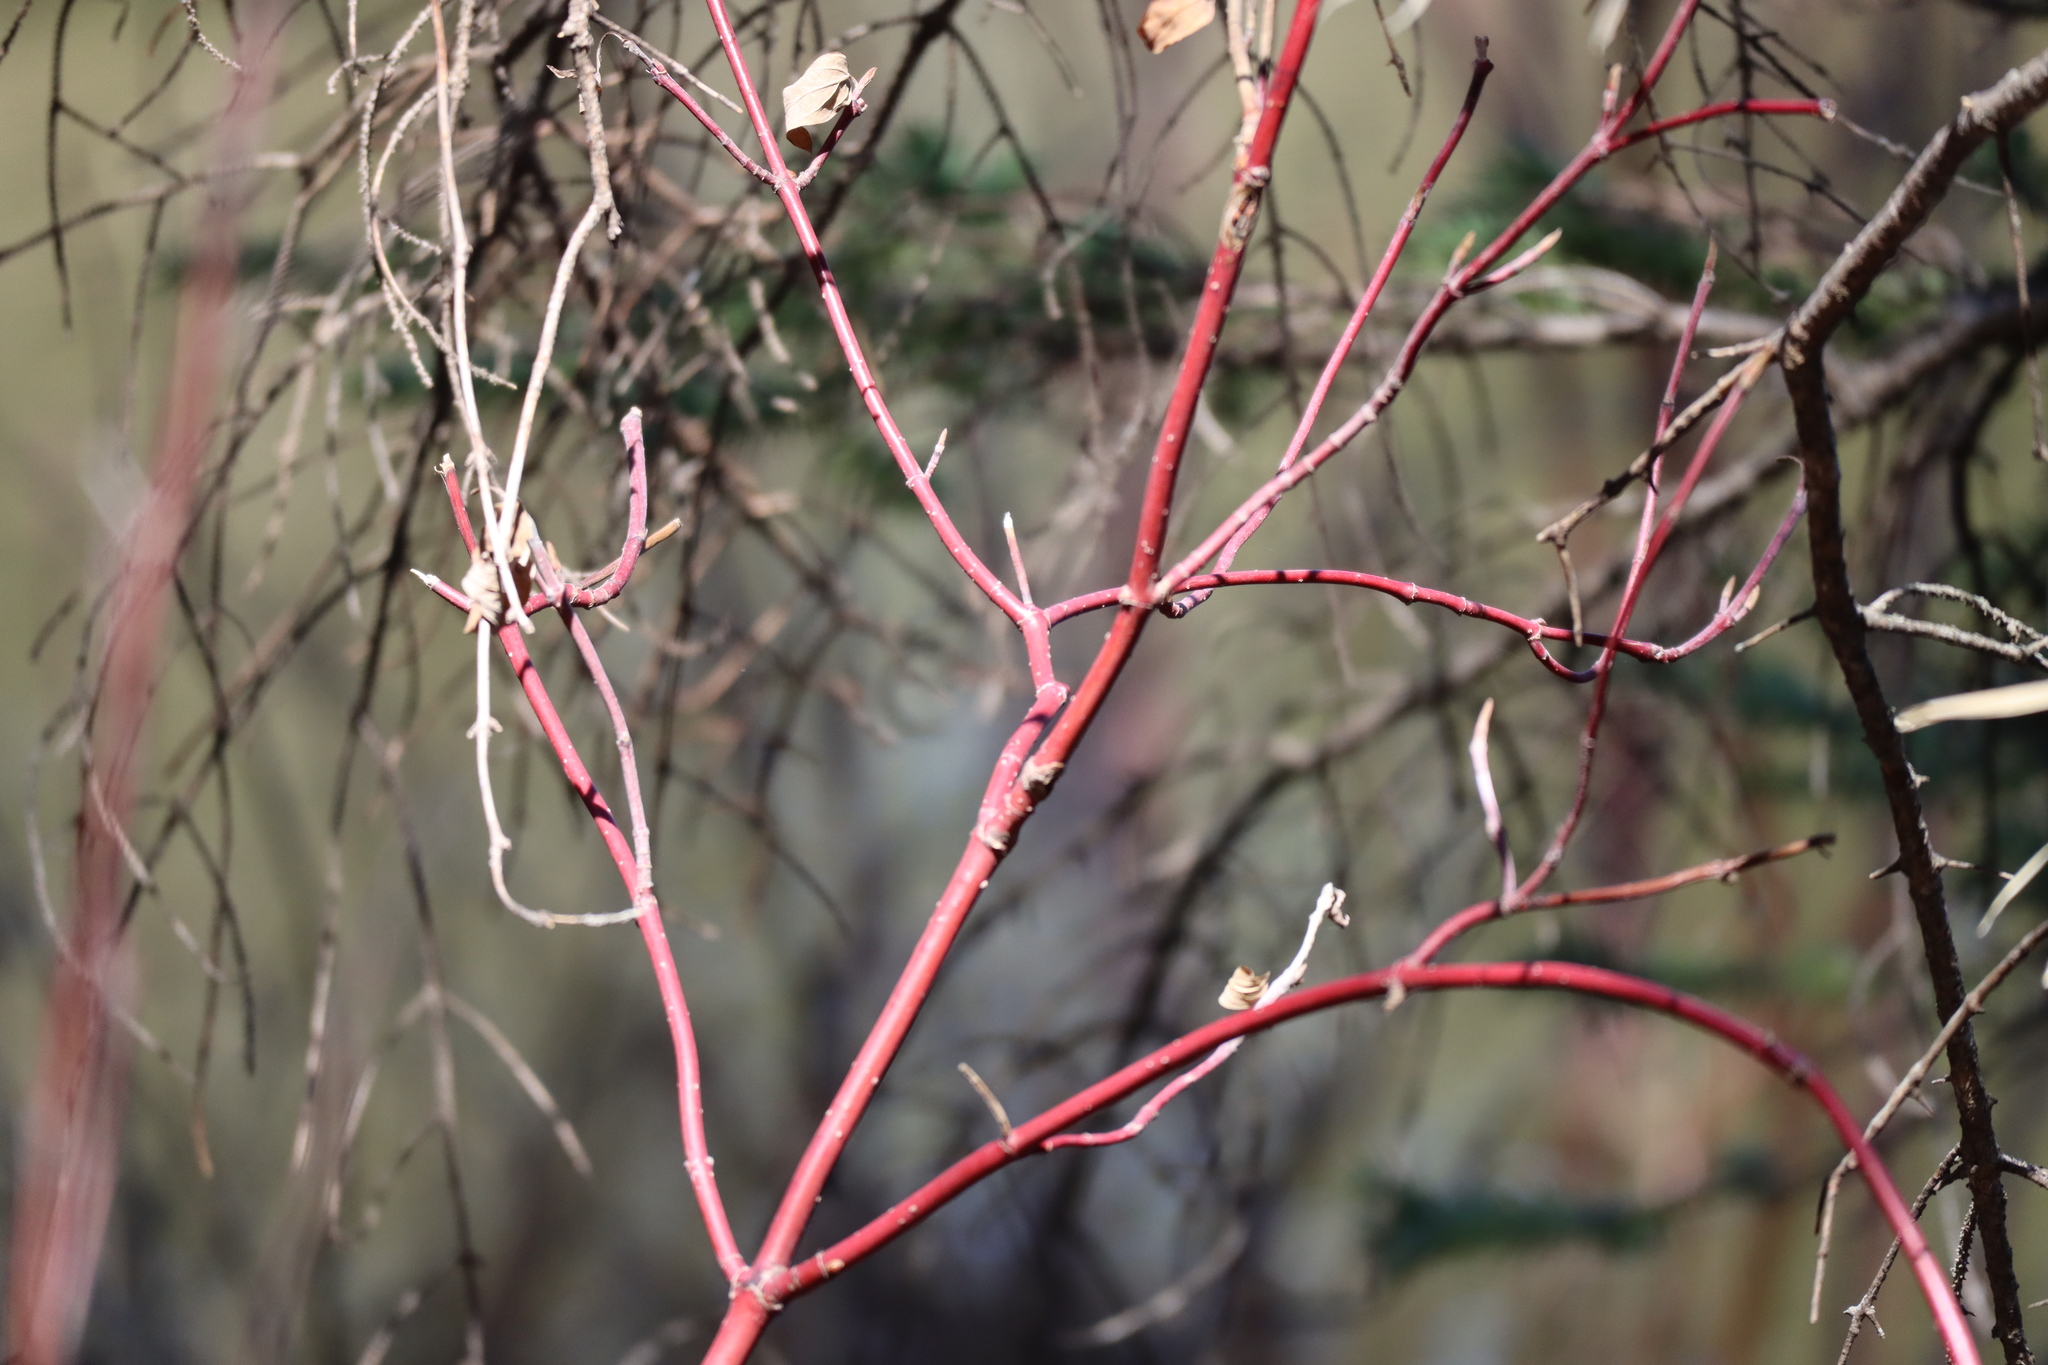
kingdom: Plantae
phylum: Tracheophyta
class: Magnoliopsida
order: Cornales
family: Cornaceae
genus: Cornus
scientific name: Cornus sericea
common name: Red-osier dogwood
